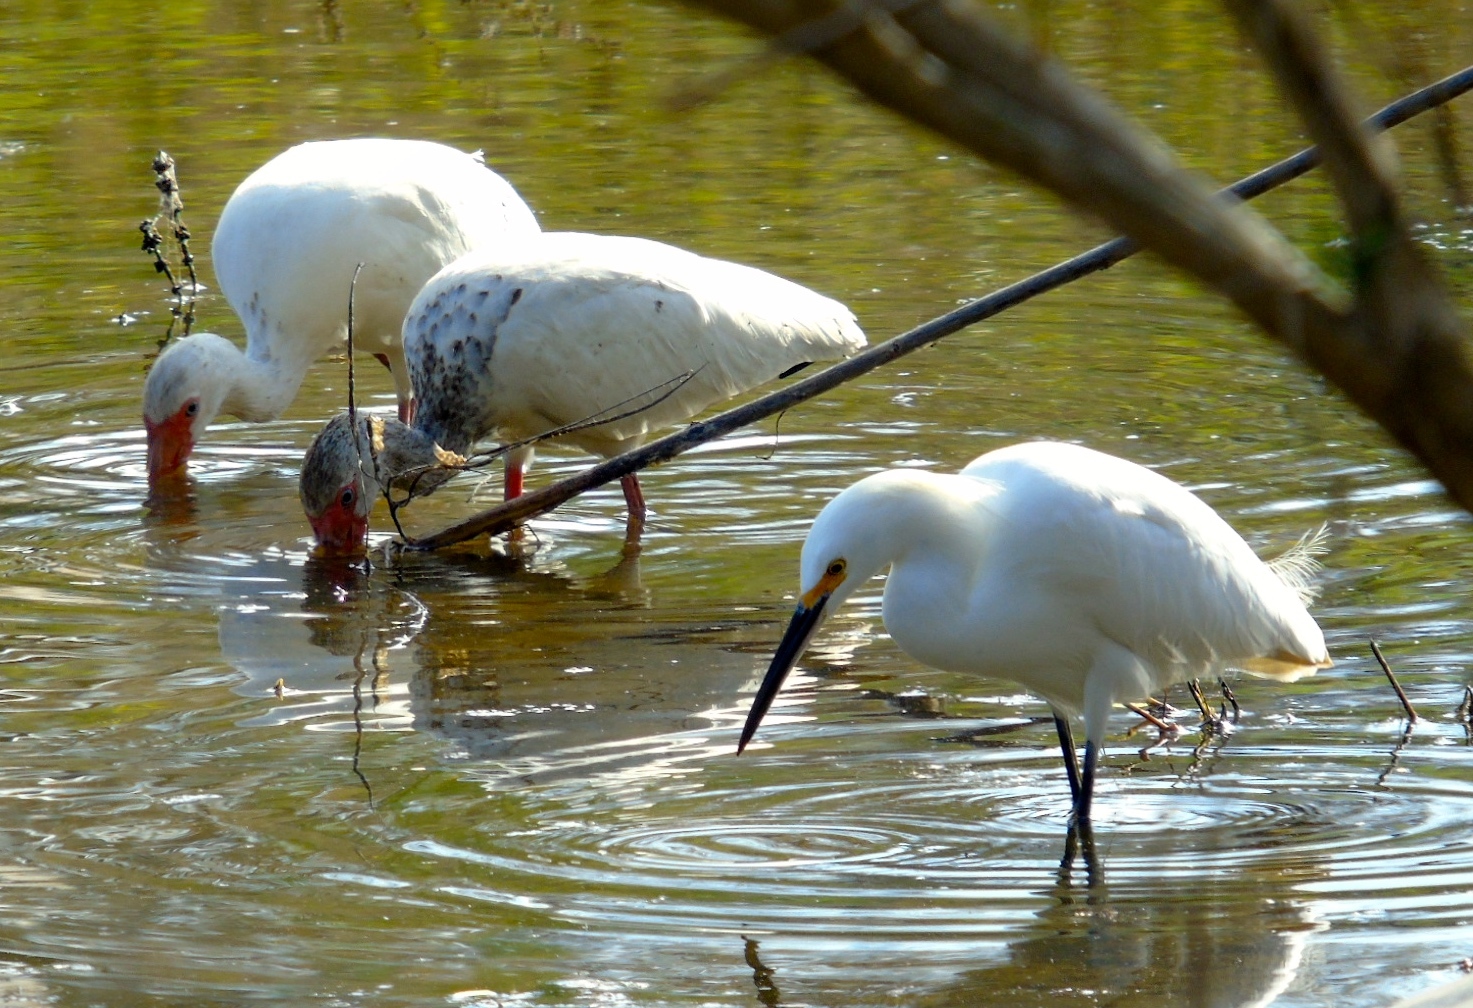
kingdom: Animalia
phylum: Chordata
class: Aves
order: Pelecaniformes
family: Ardeidae
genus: Egretta
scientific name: Egretta thula
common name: Snowy egret
